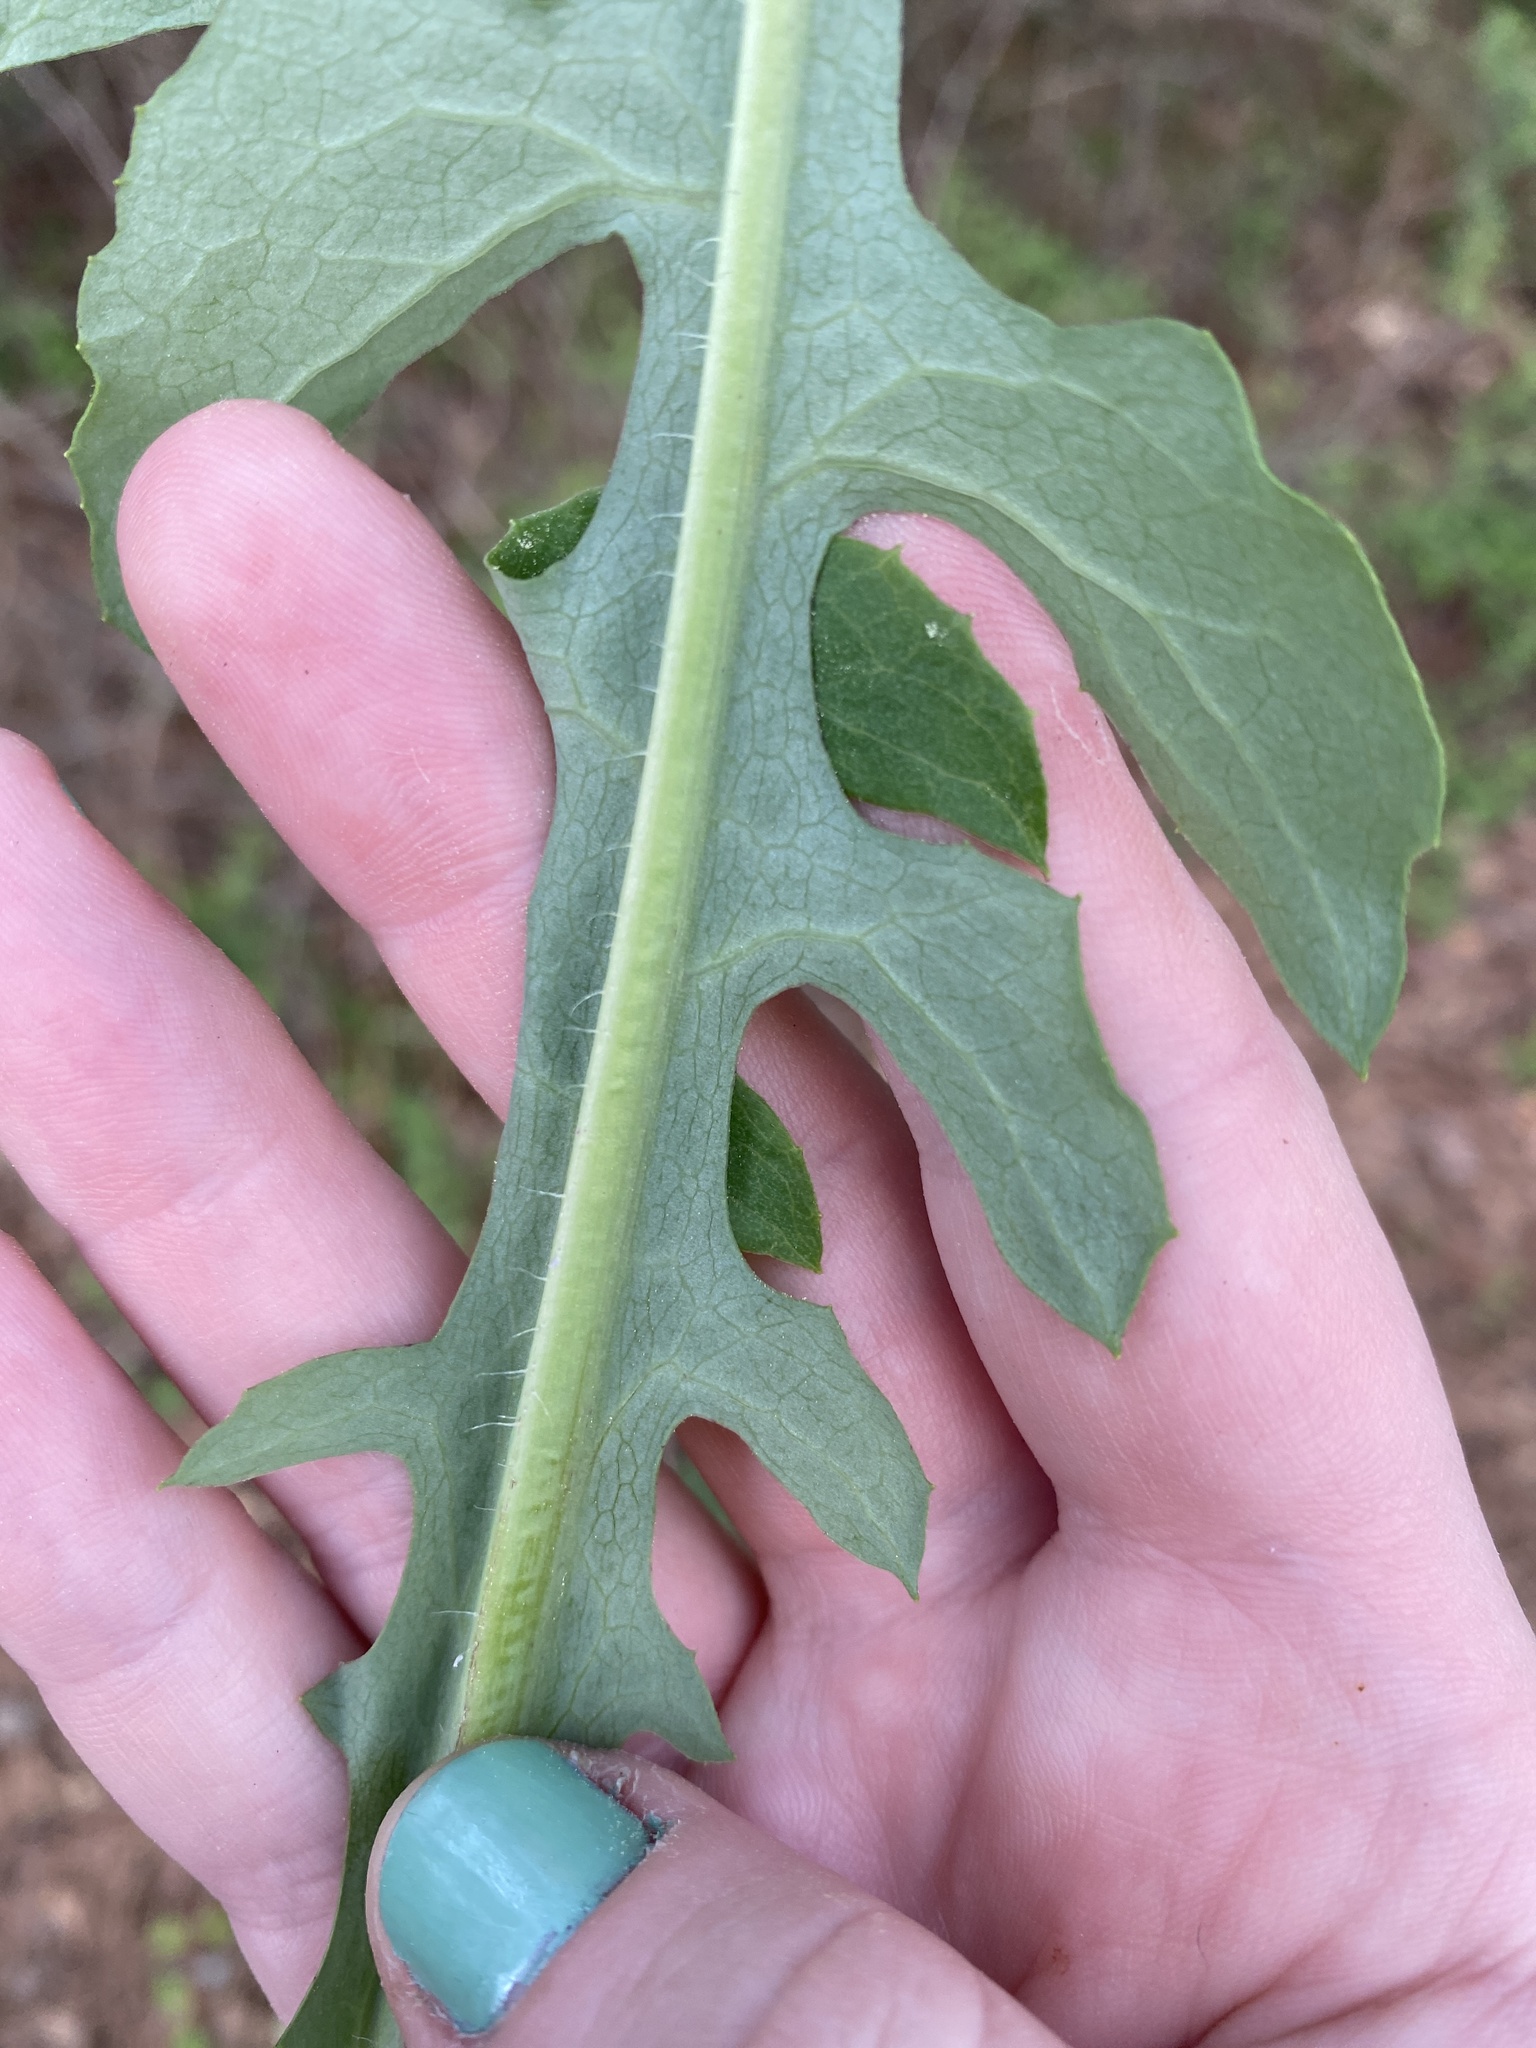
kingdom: Plantae
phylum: Tracheophyta
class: Magnoliopsida
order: Asterales
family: Asteraceae
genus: Lactuca
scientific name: Lactuca serriola
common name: Prickly lettuce
